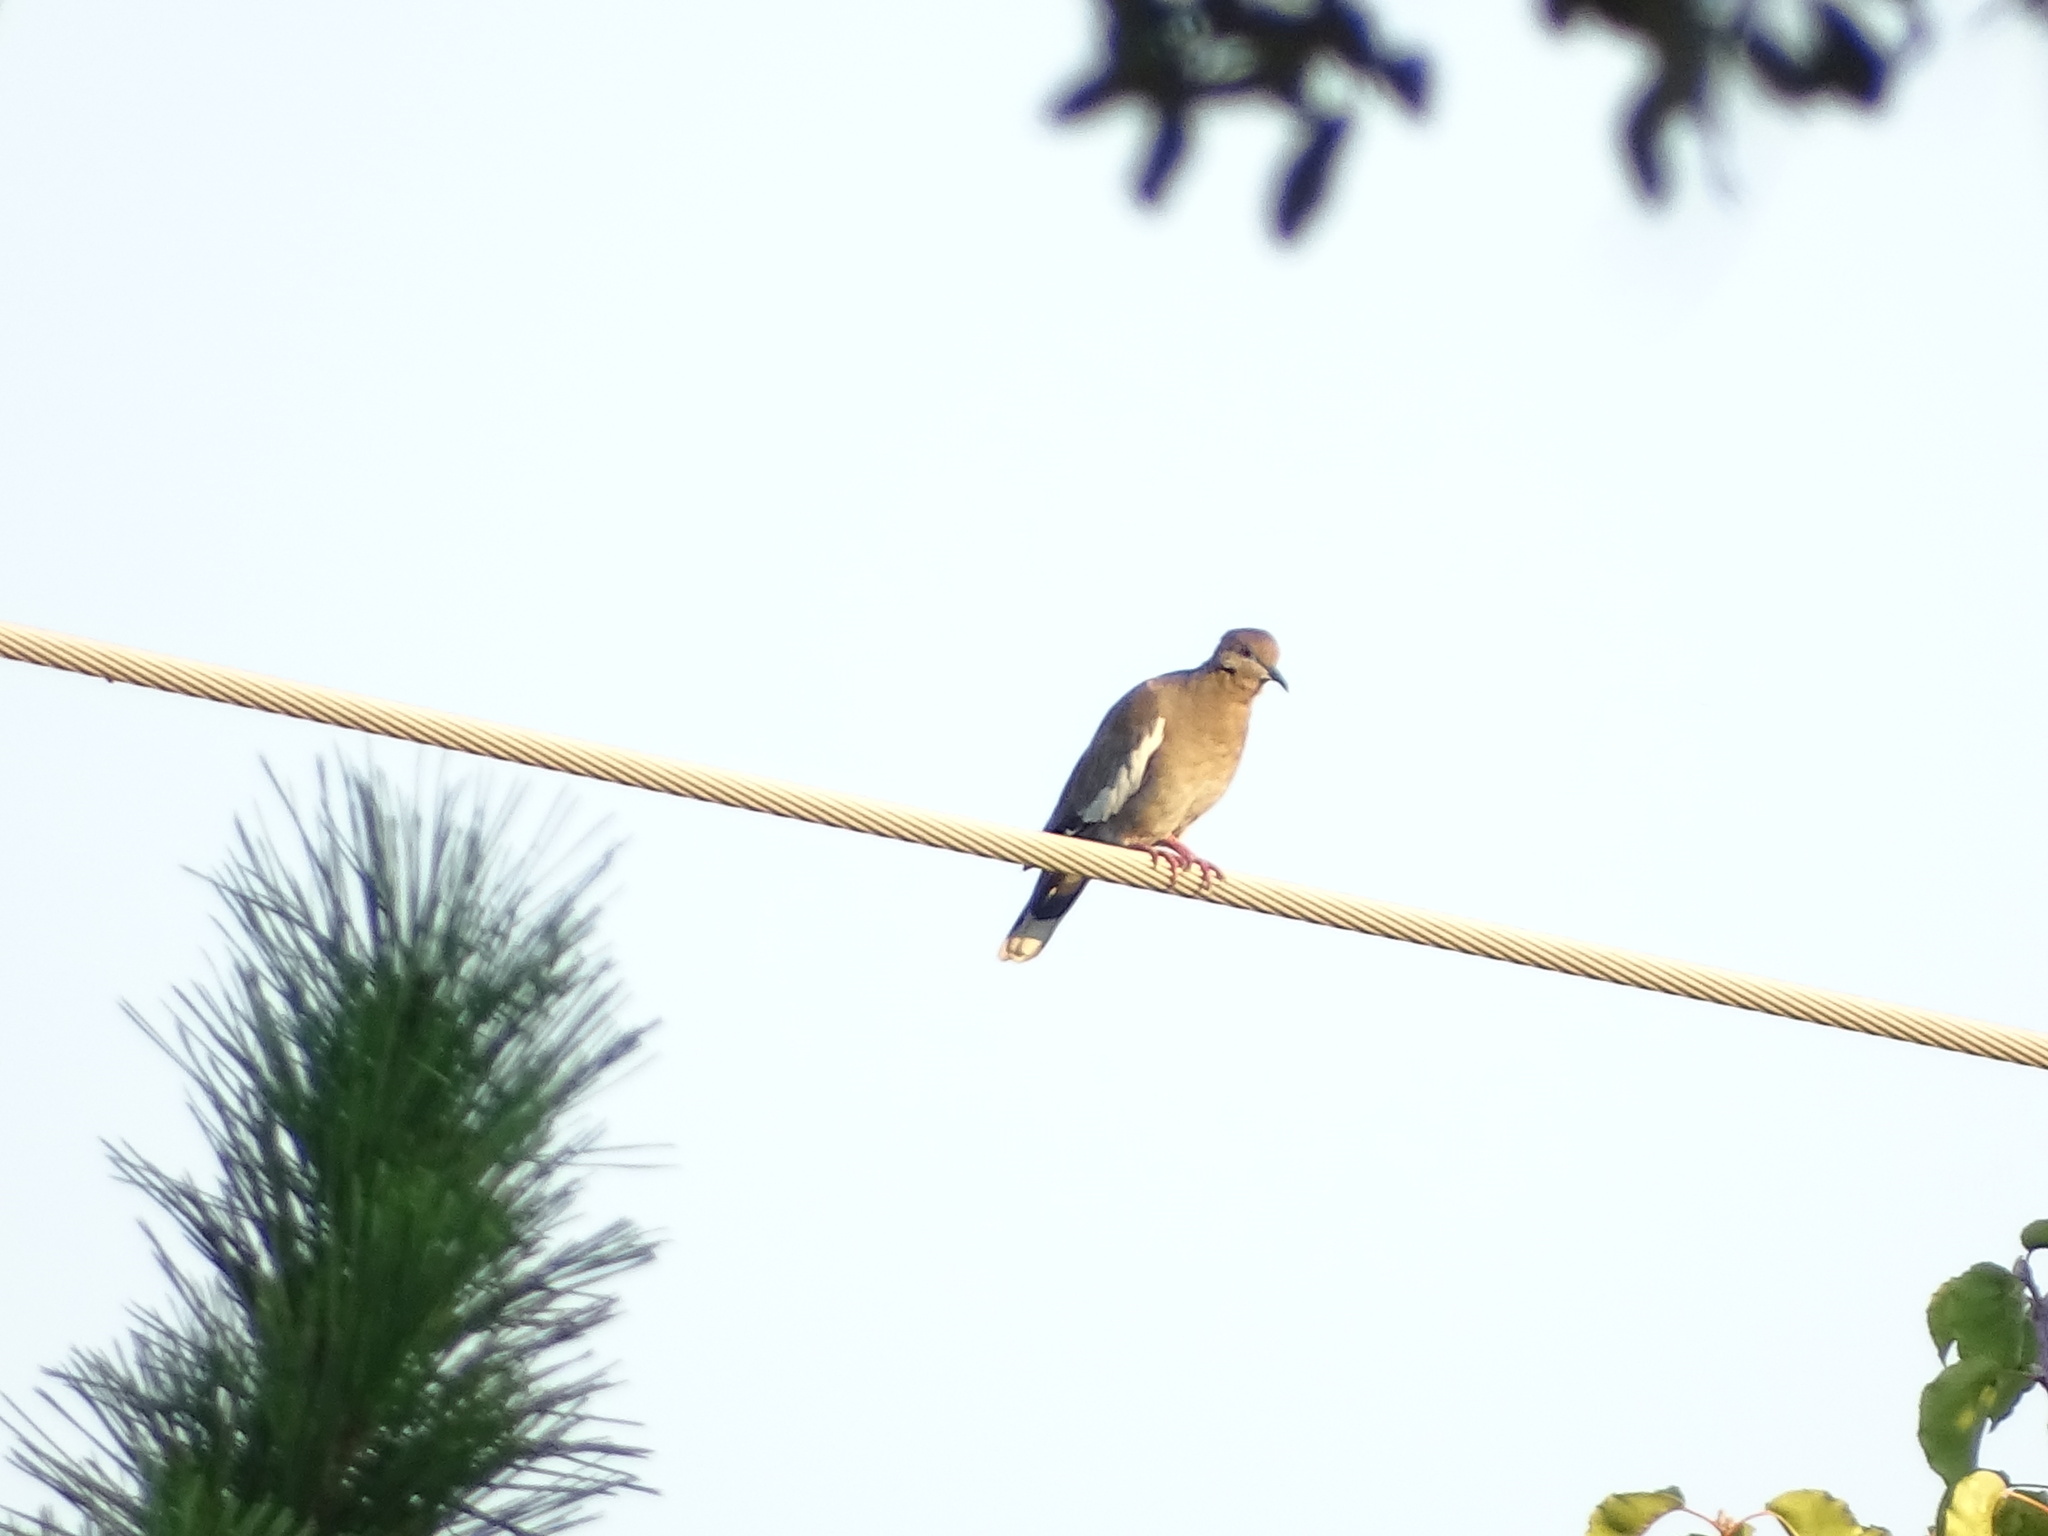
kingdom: Animalia
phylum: Chordata
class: Aves
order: Columbiformes
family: Columbidae
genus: Zenaida
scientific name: Zenaida asiatica
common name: White-winged dove
